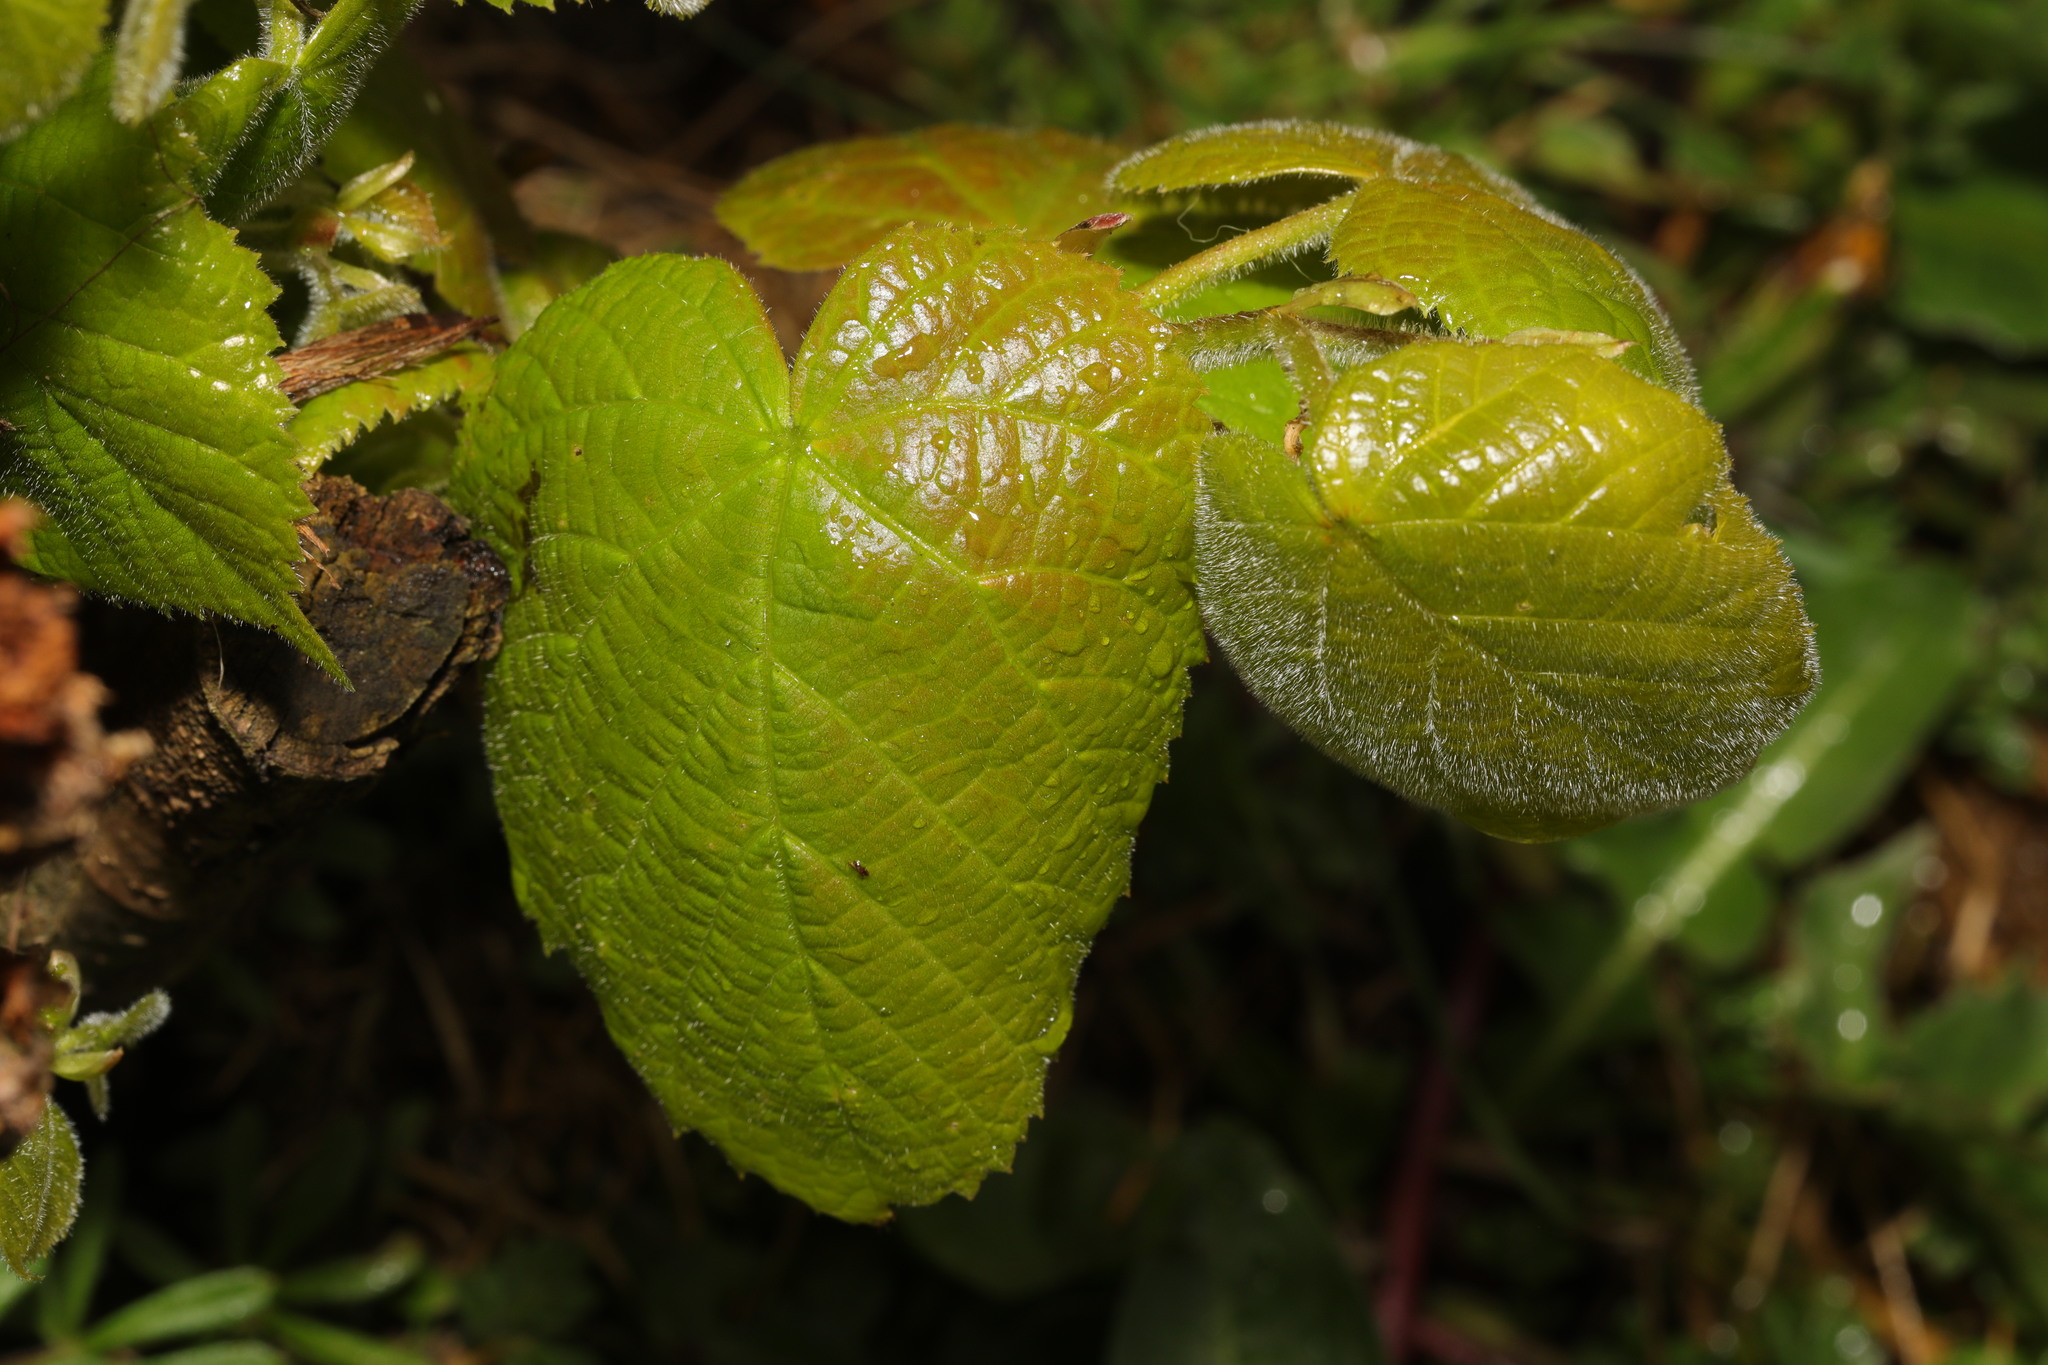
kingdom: Plantae
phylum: Tracheophyta
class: Magnoliopsida
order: Malvales
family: Malvaceae
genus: Tilia
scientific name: Tilia europaea
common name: European linden
